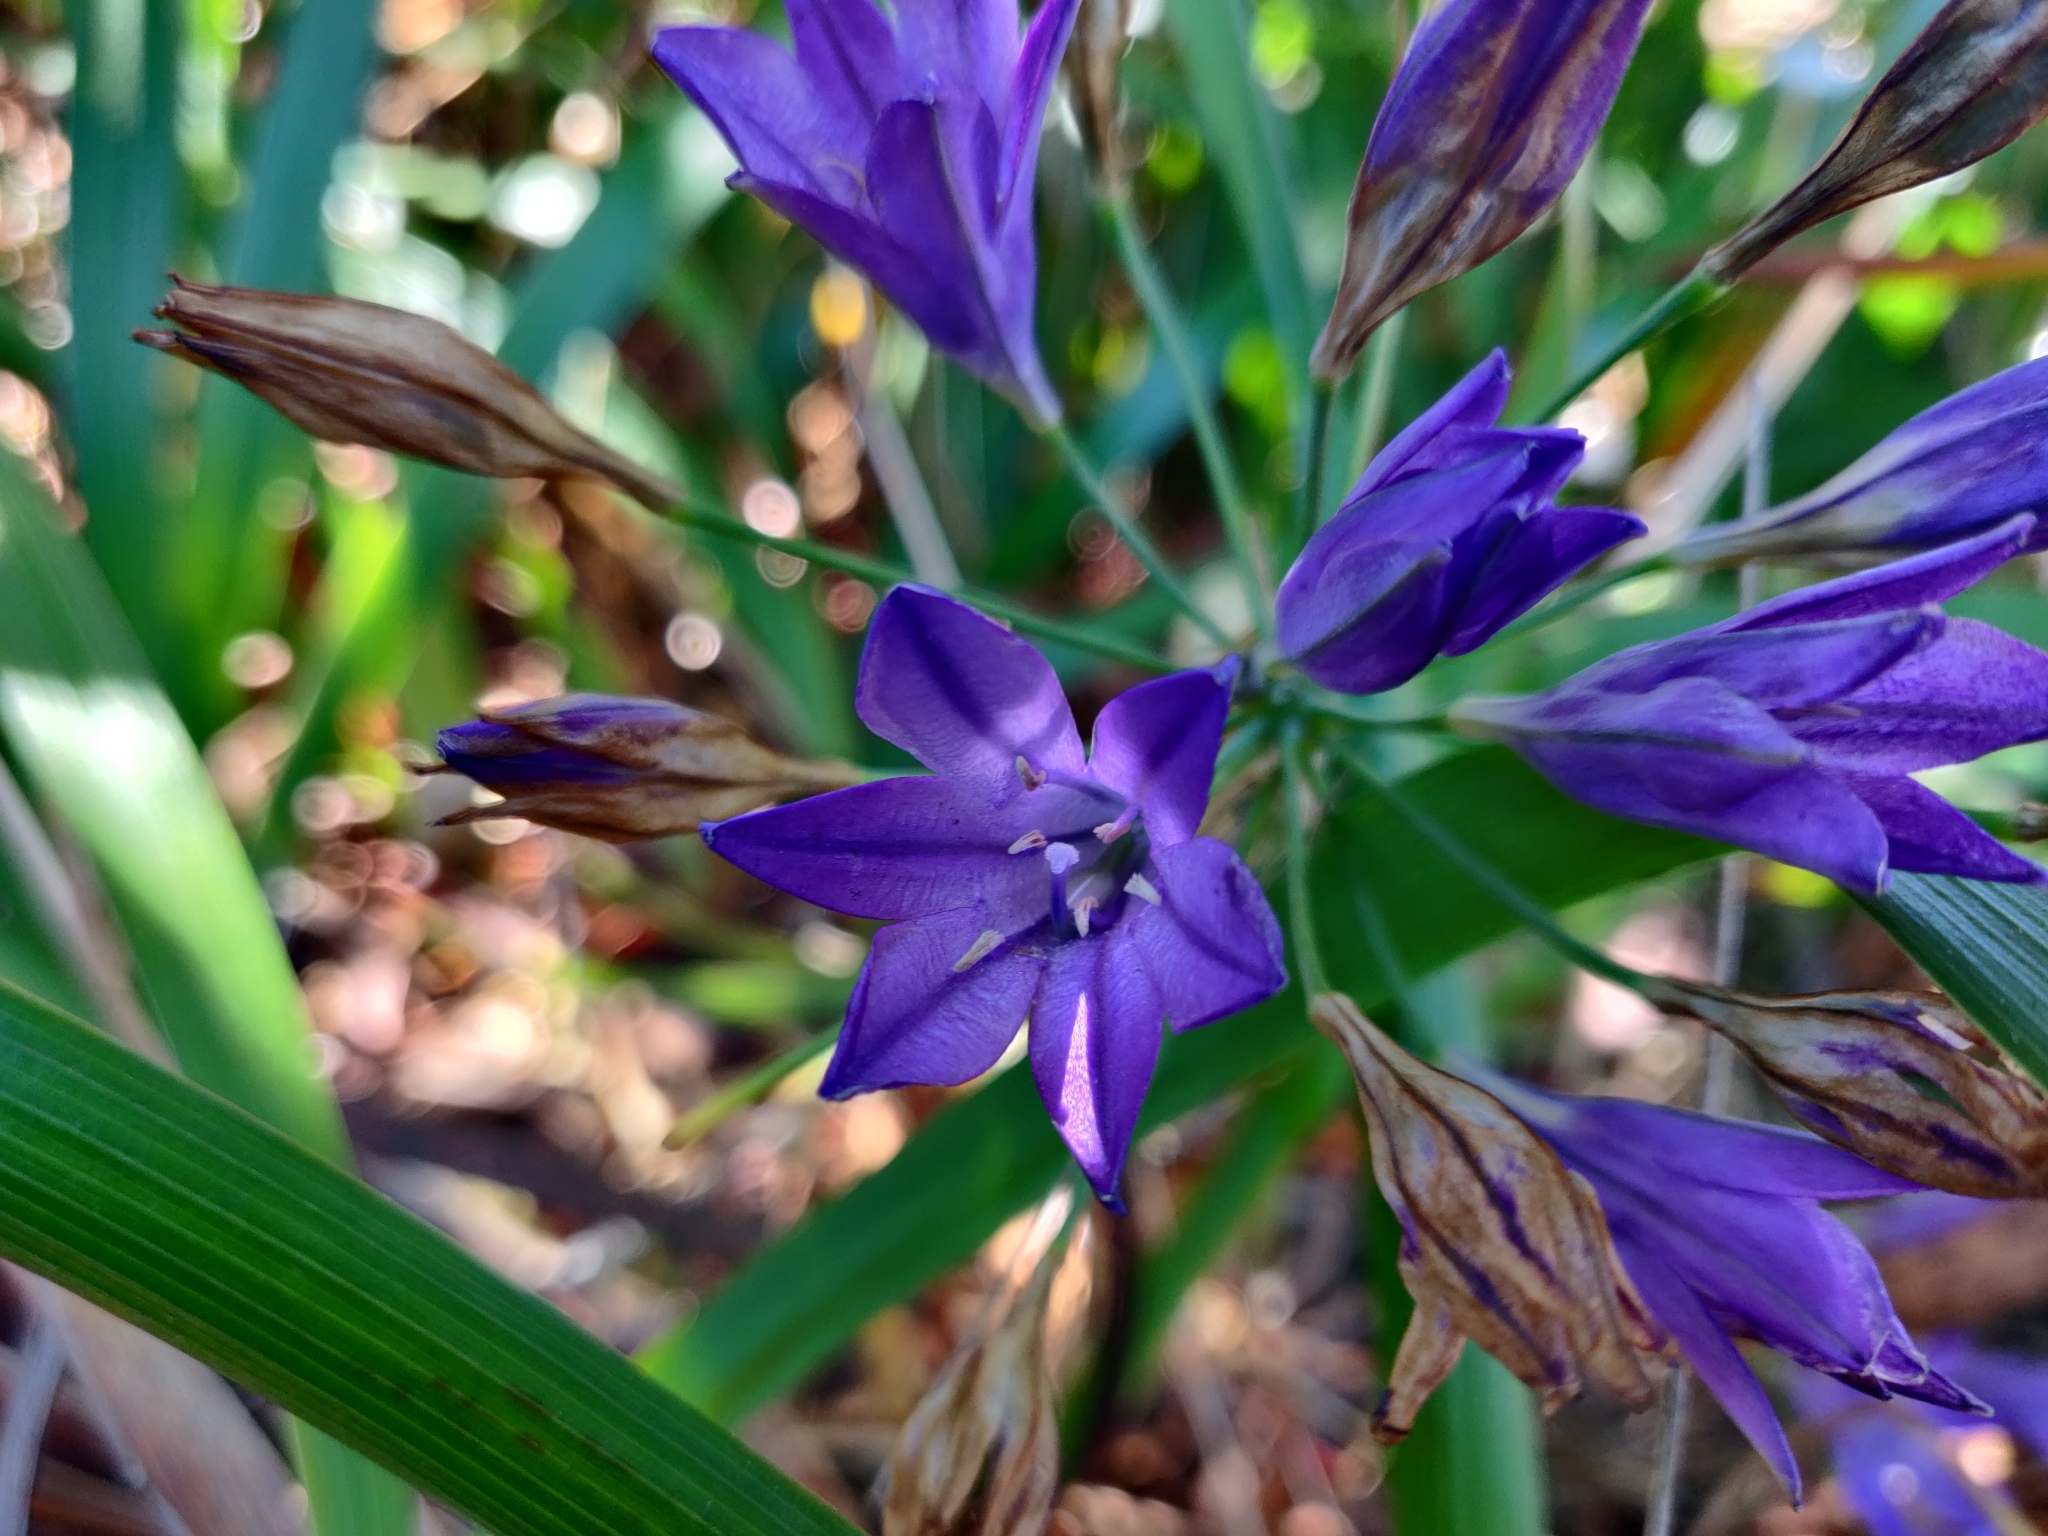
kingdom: Plantae
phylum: Tracheophyta
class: Liliopsida
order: Asparagales
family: Asparagaceae
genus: Triteleia
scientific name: Triteleia laxa
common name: Triplet-lily
